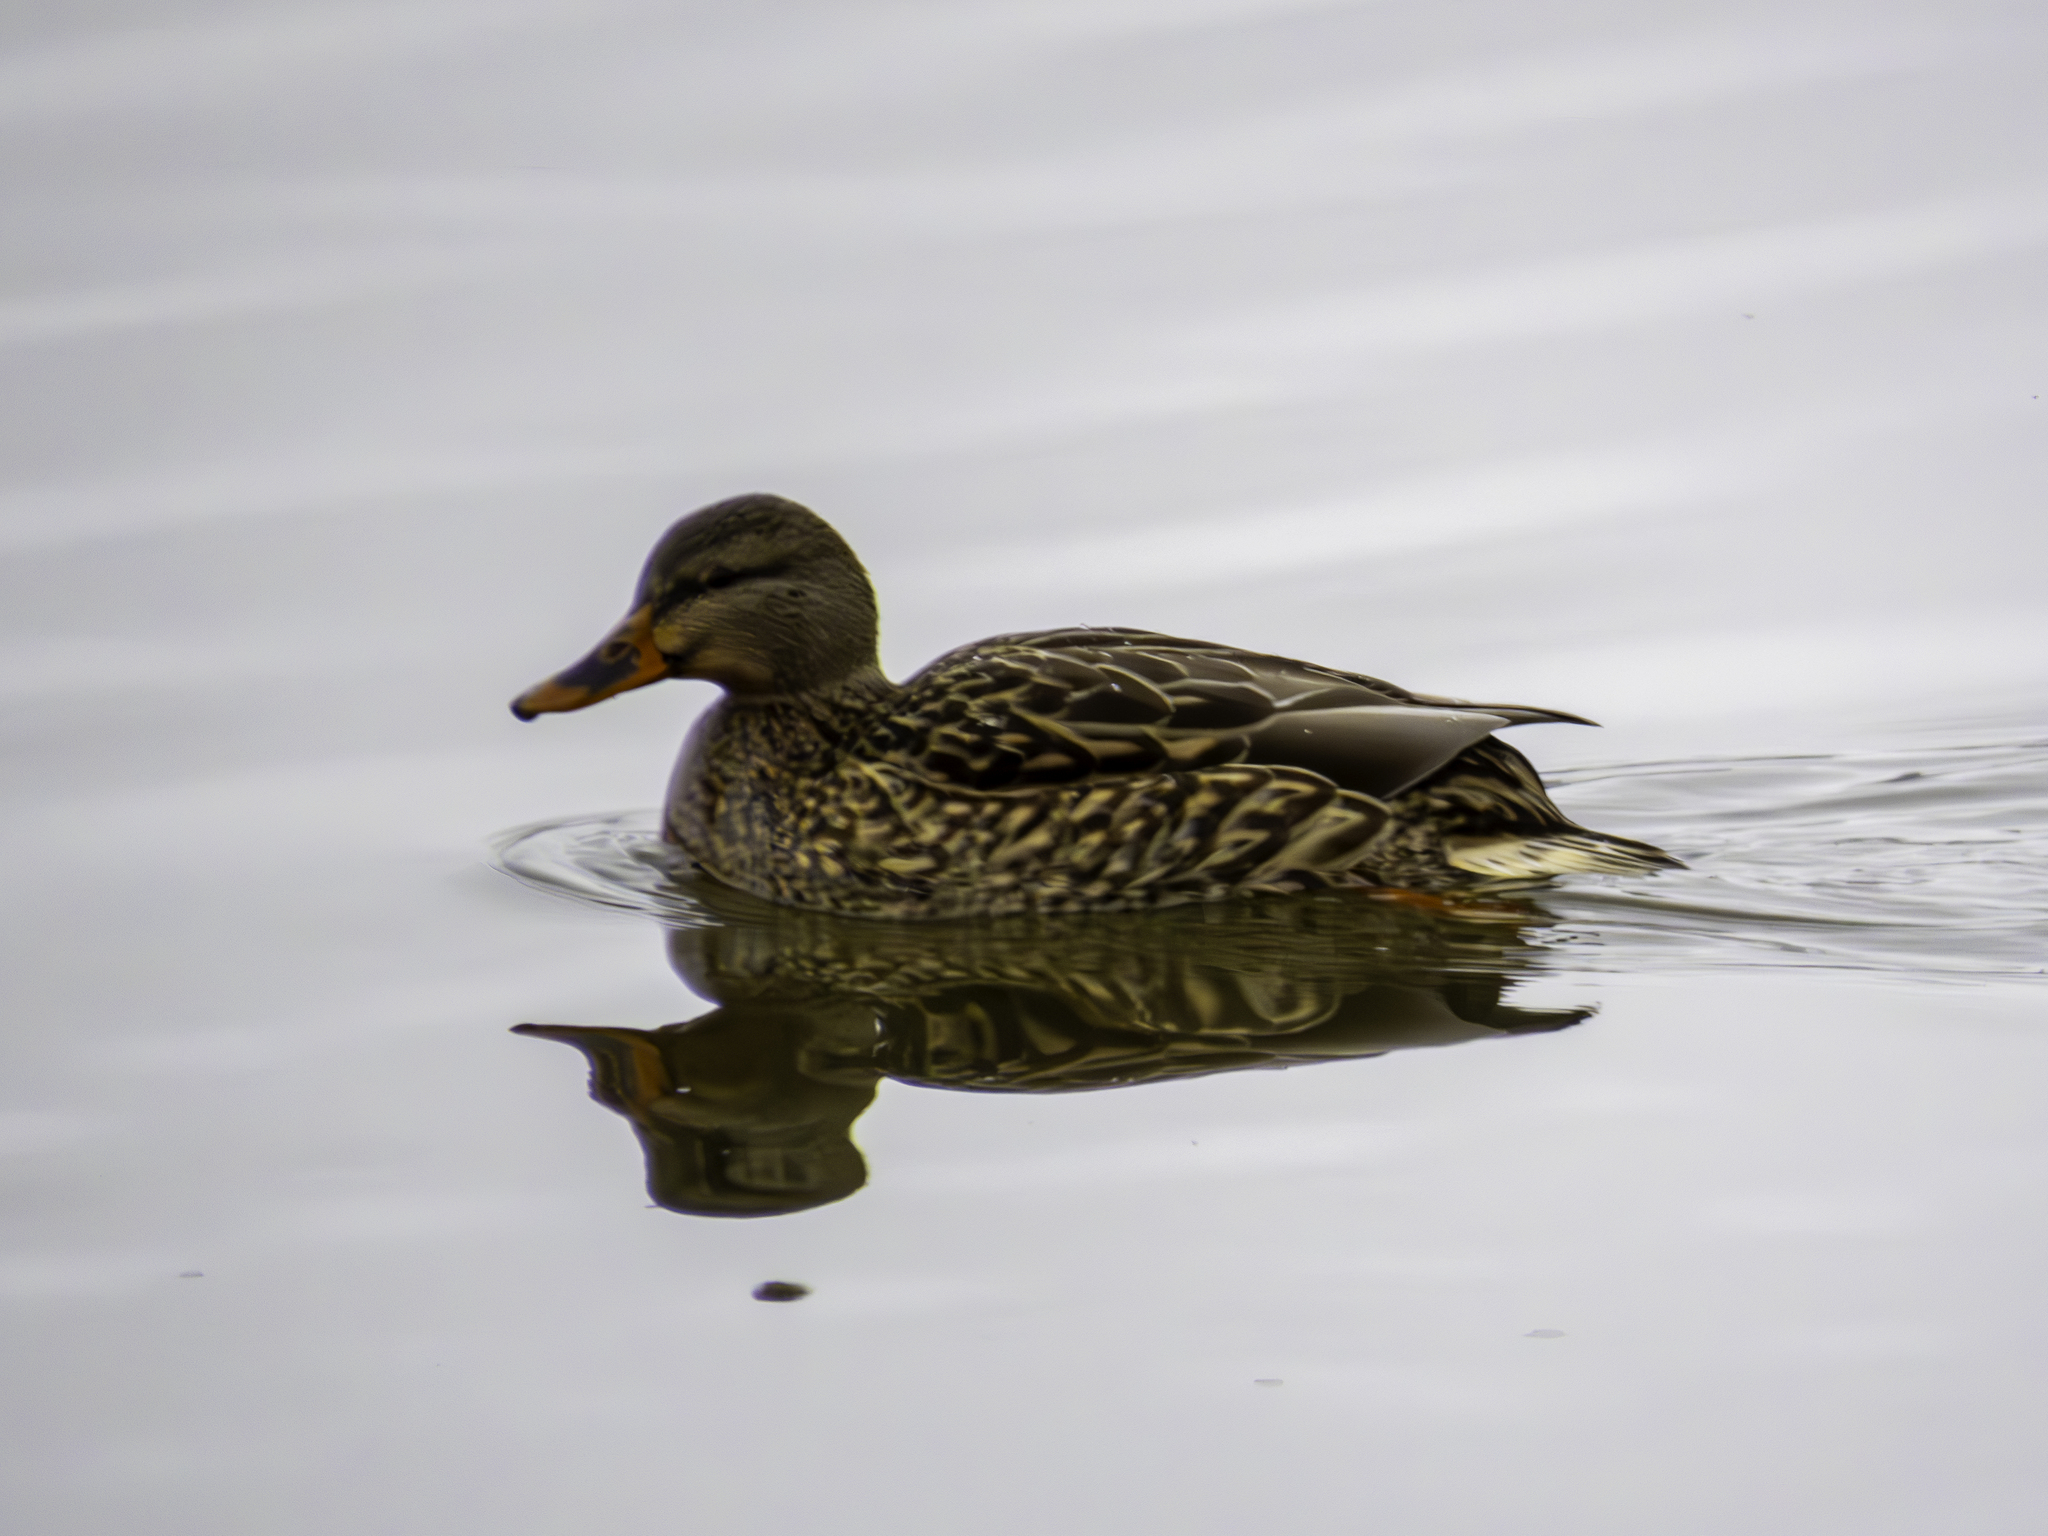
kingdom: Animalia
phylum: Chordata
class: Aves
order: Anseriformes
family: Anatidae
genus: Anas
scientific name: Anas platyrhynchos
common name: Mallard
